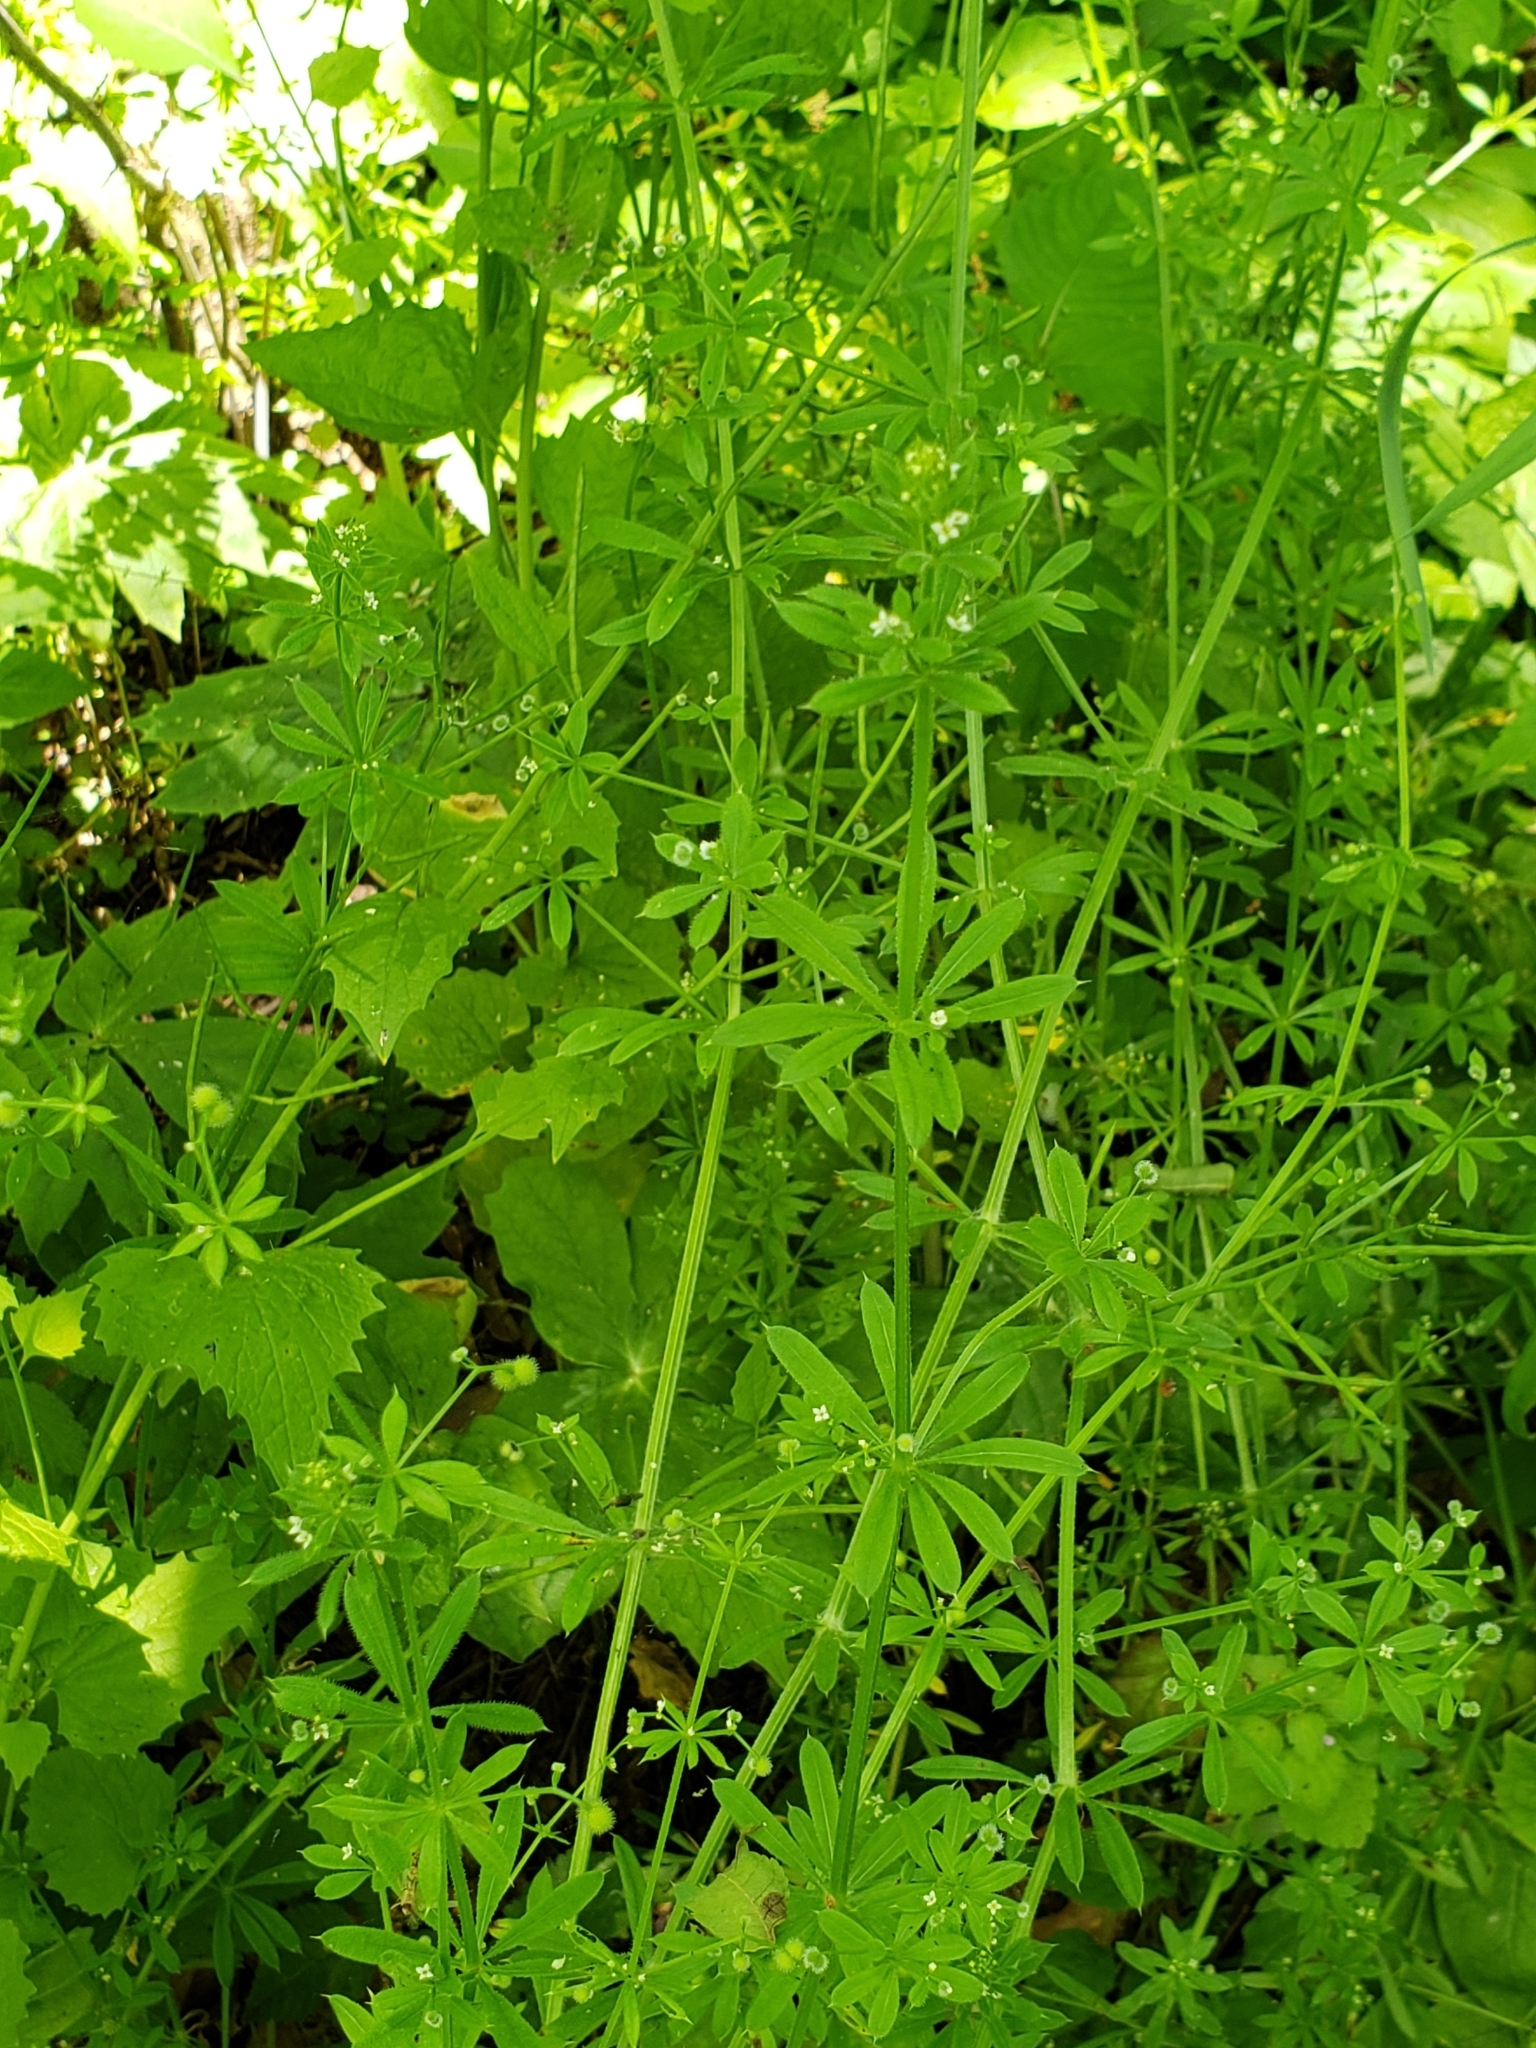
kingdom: Plantae
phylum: Tracheophyta
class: Magnoliopsida
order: Gentianales
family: Rubiaceae
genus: Galium
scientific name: Galium aparine
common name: Cleavers
